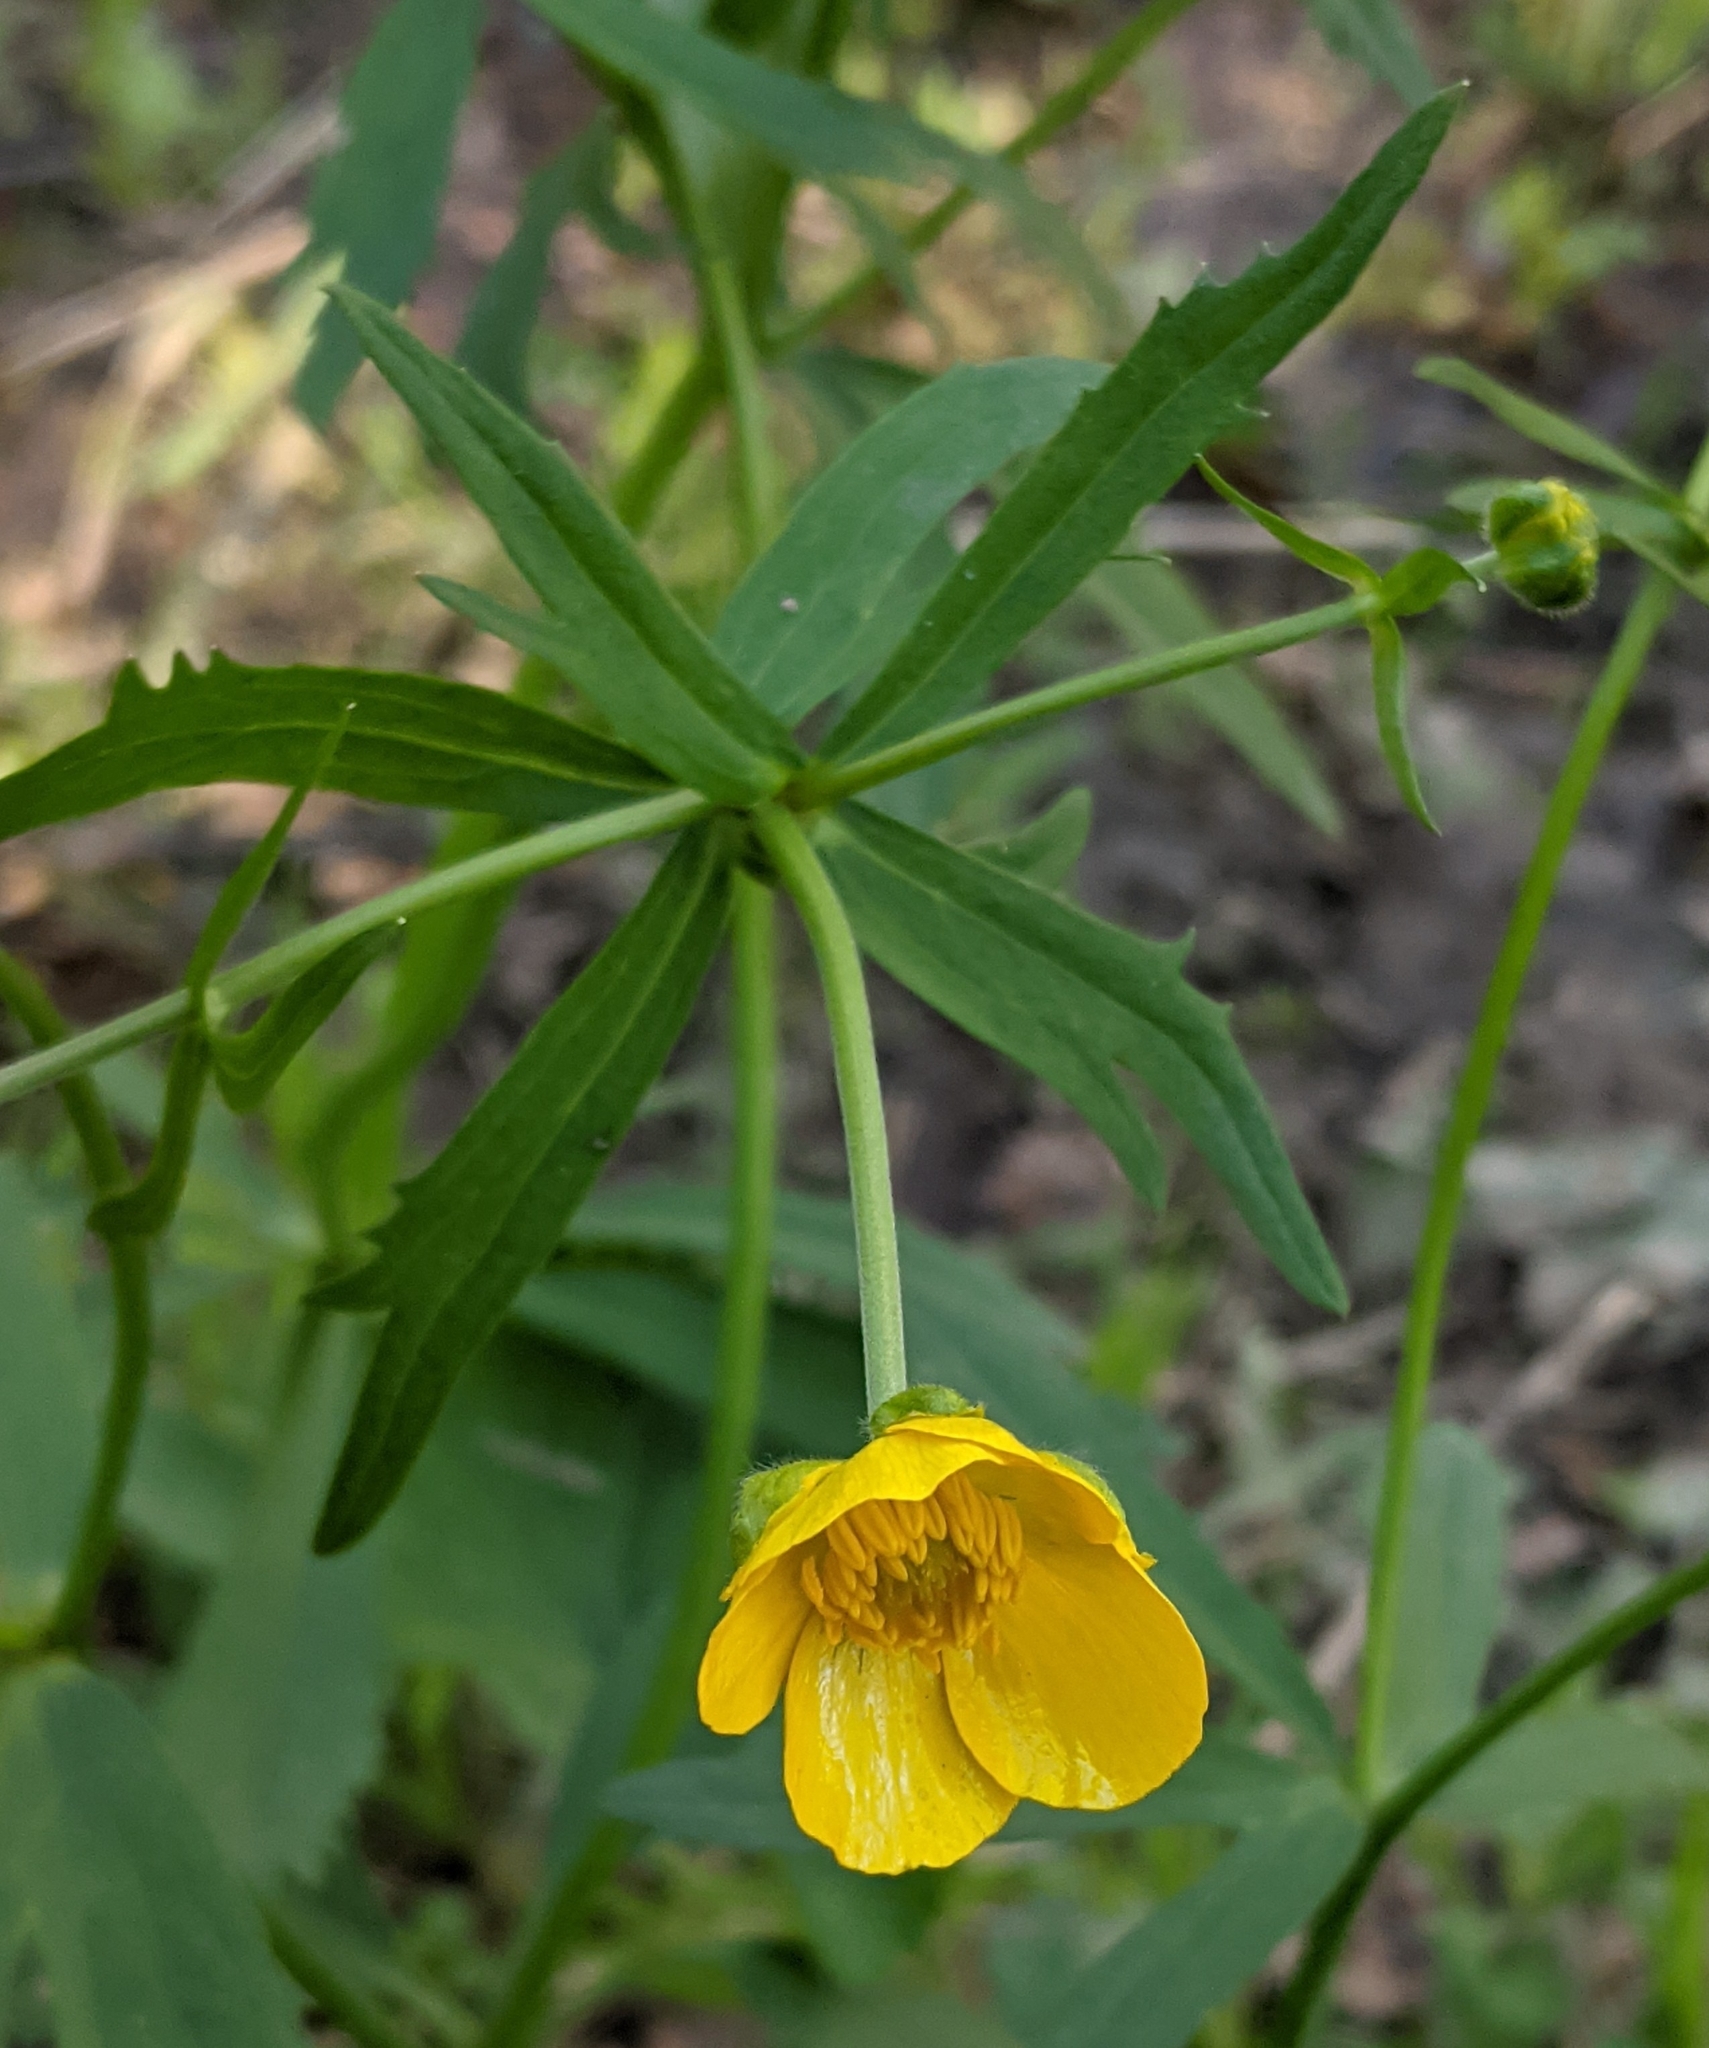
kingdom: Plantae
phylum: Tracheophyta
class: Magnoliopsida
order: Ranunculales
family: Ranunculaceae
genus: Ranunculus
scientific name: Ranunculus cassubicus
